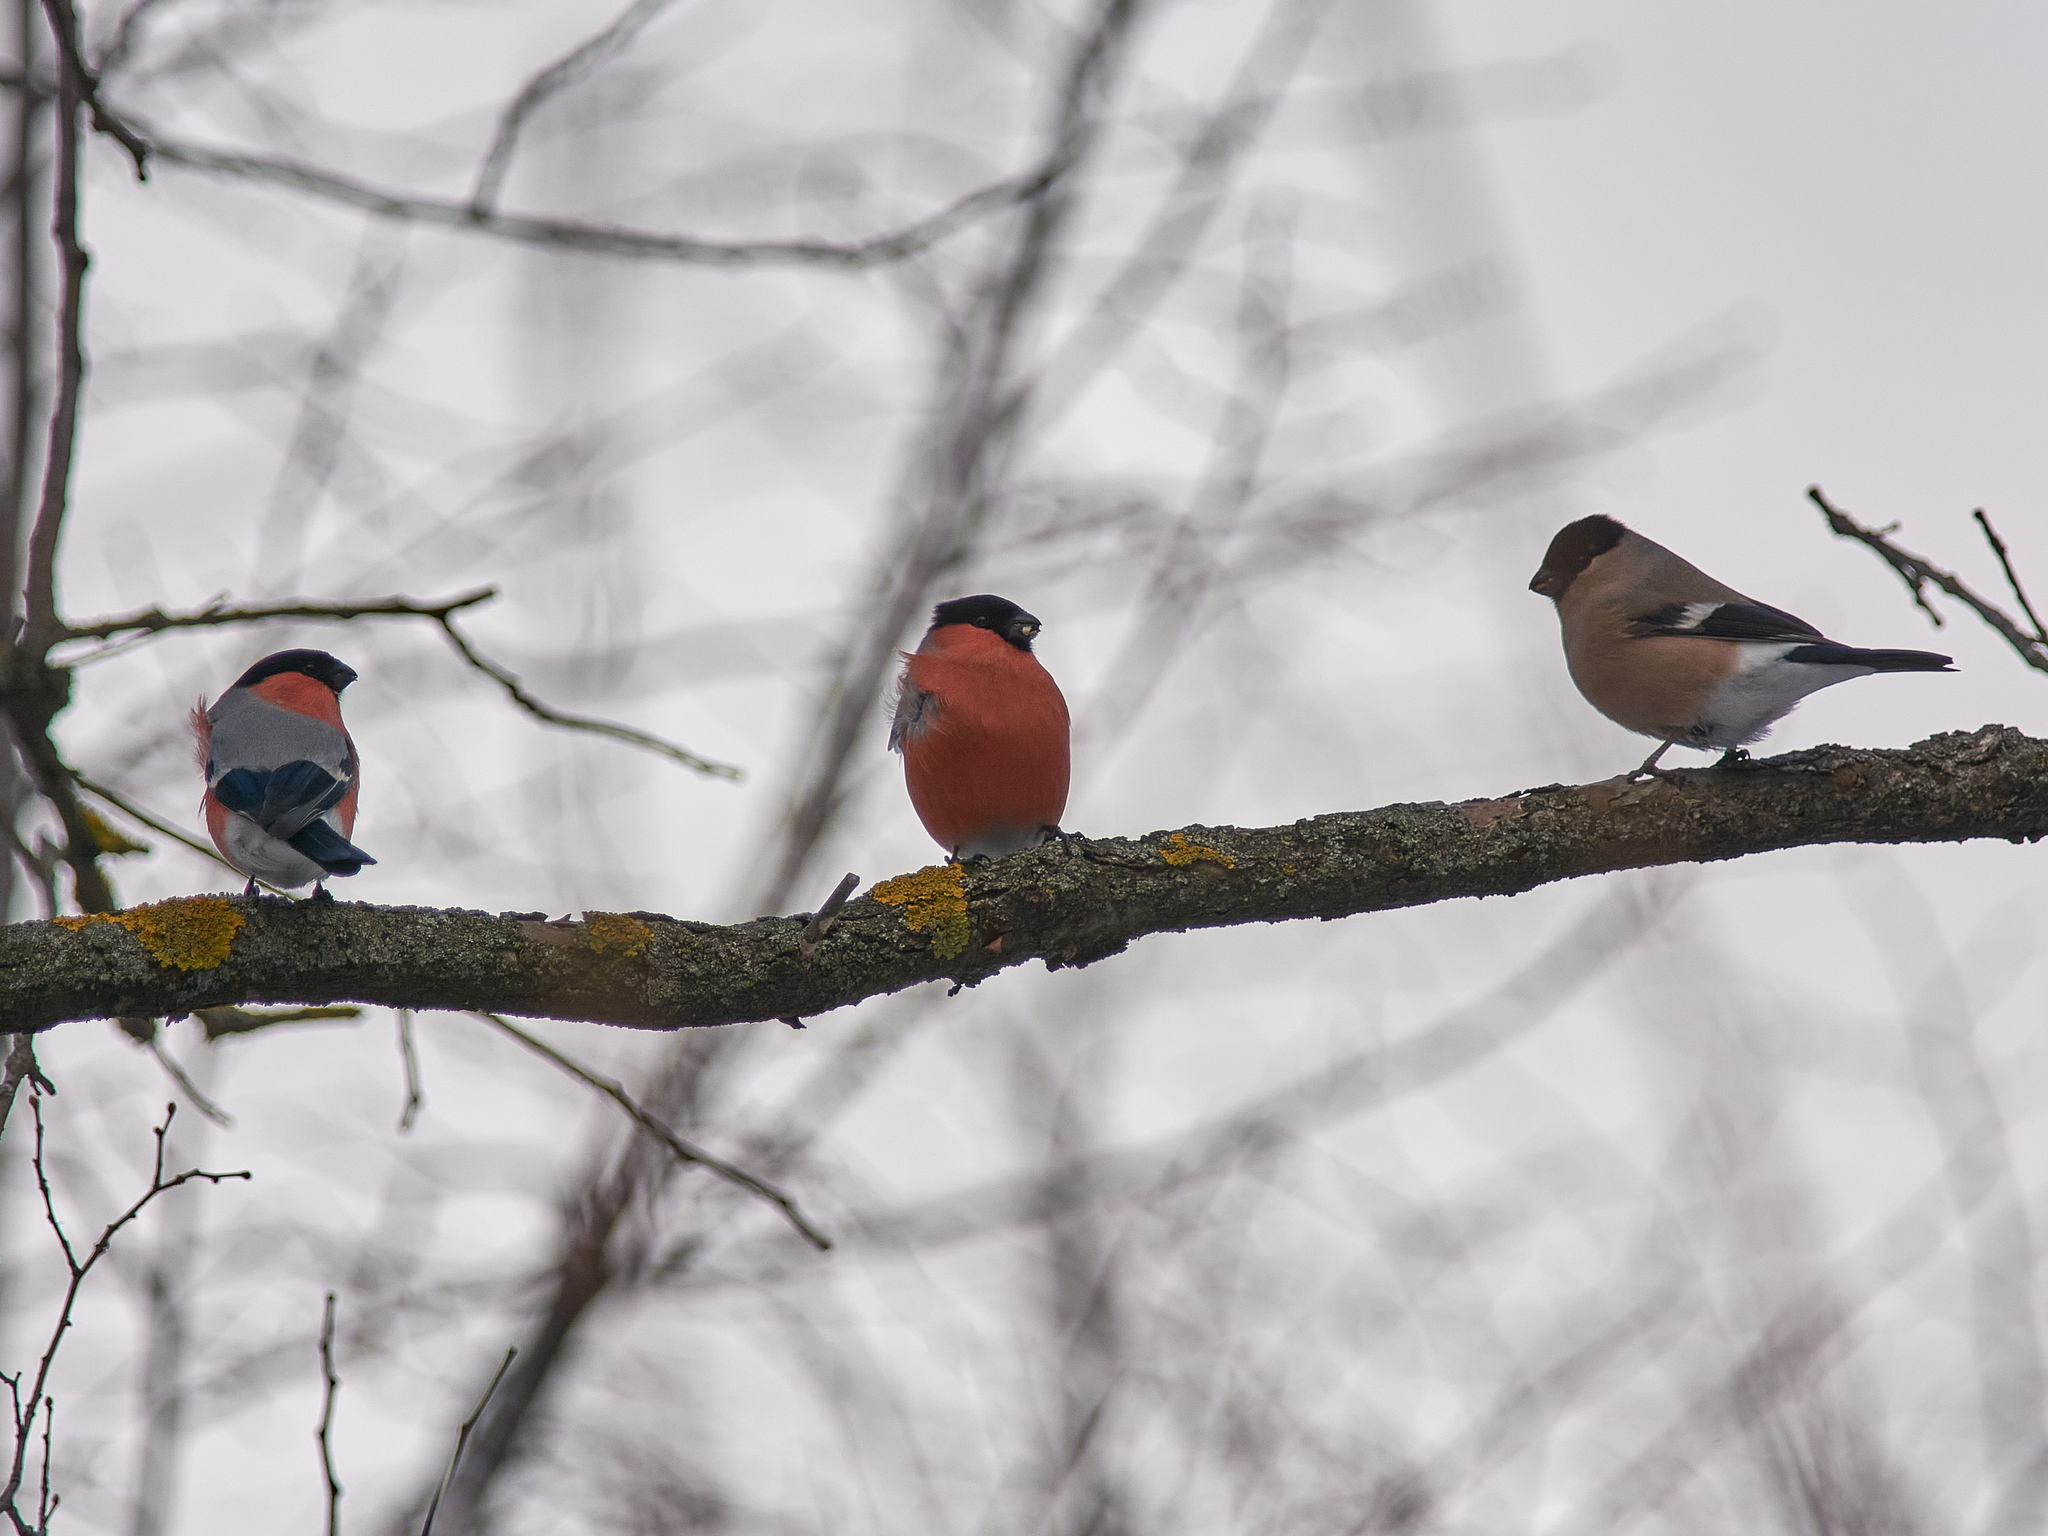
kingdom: Animalia
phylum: Chordata
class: Aves
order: Passeriformes
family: Fringillidae
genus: Pyrrhula
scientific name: Pyrrhula pyrrhula
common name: Eurasian bullfinch
